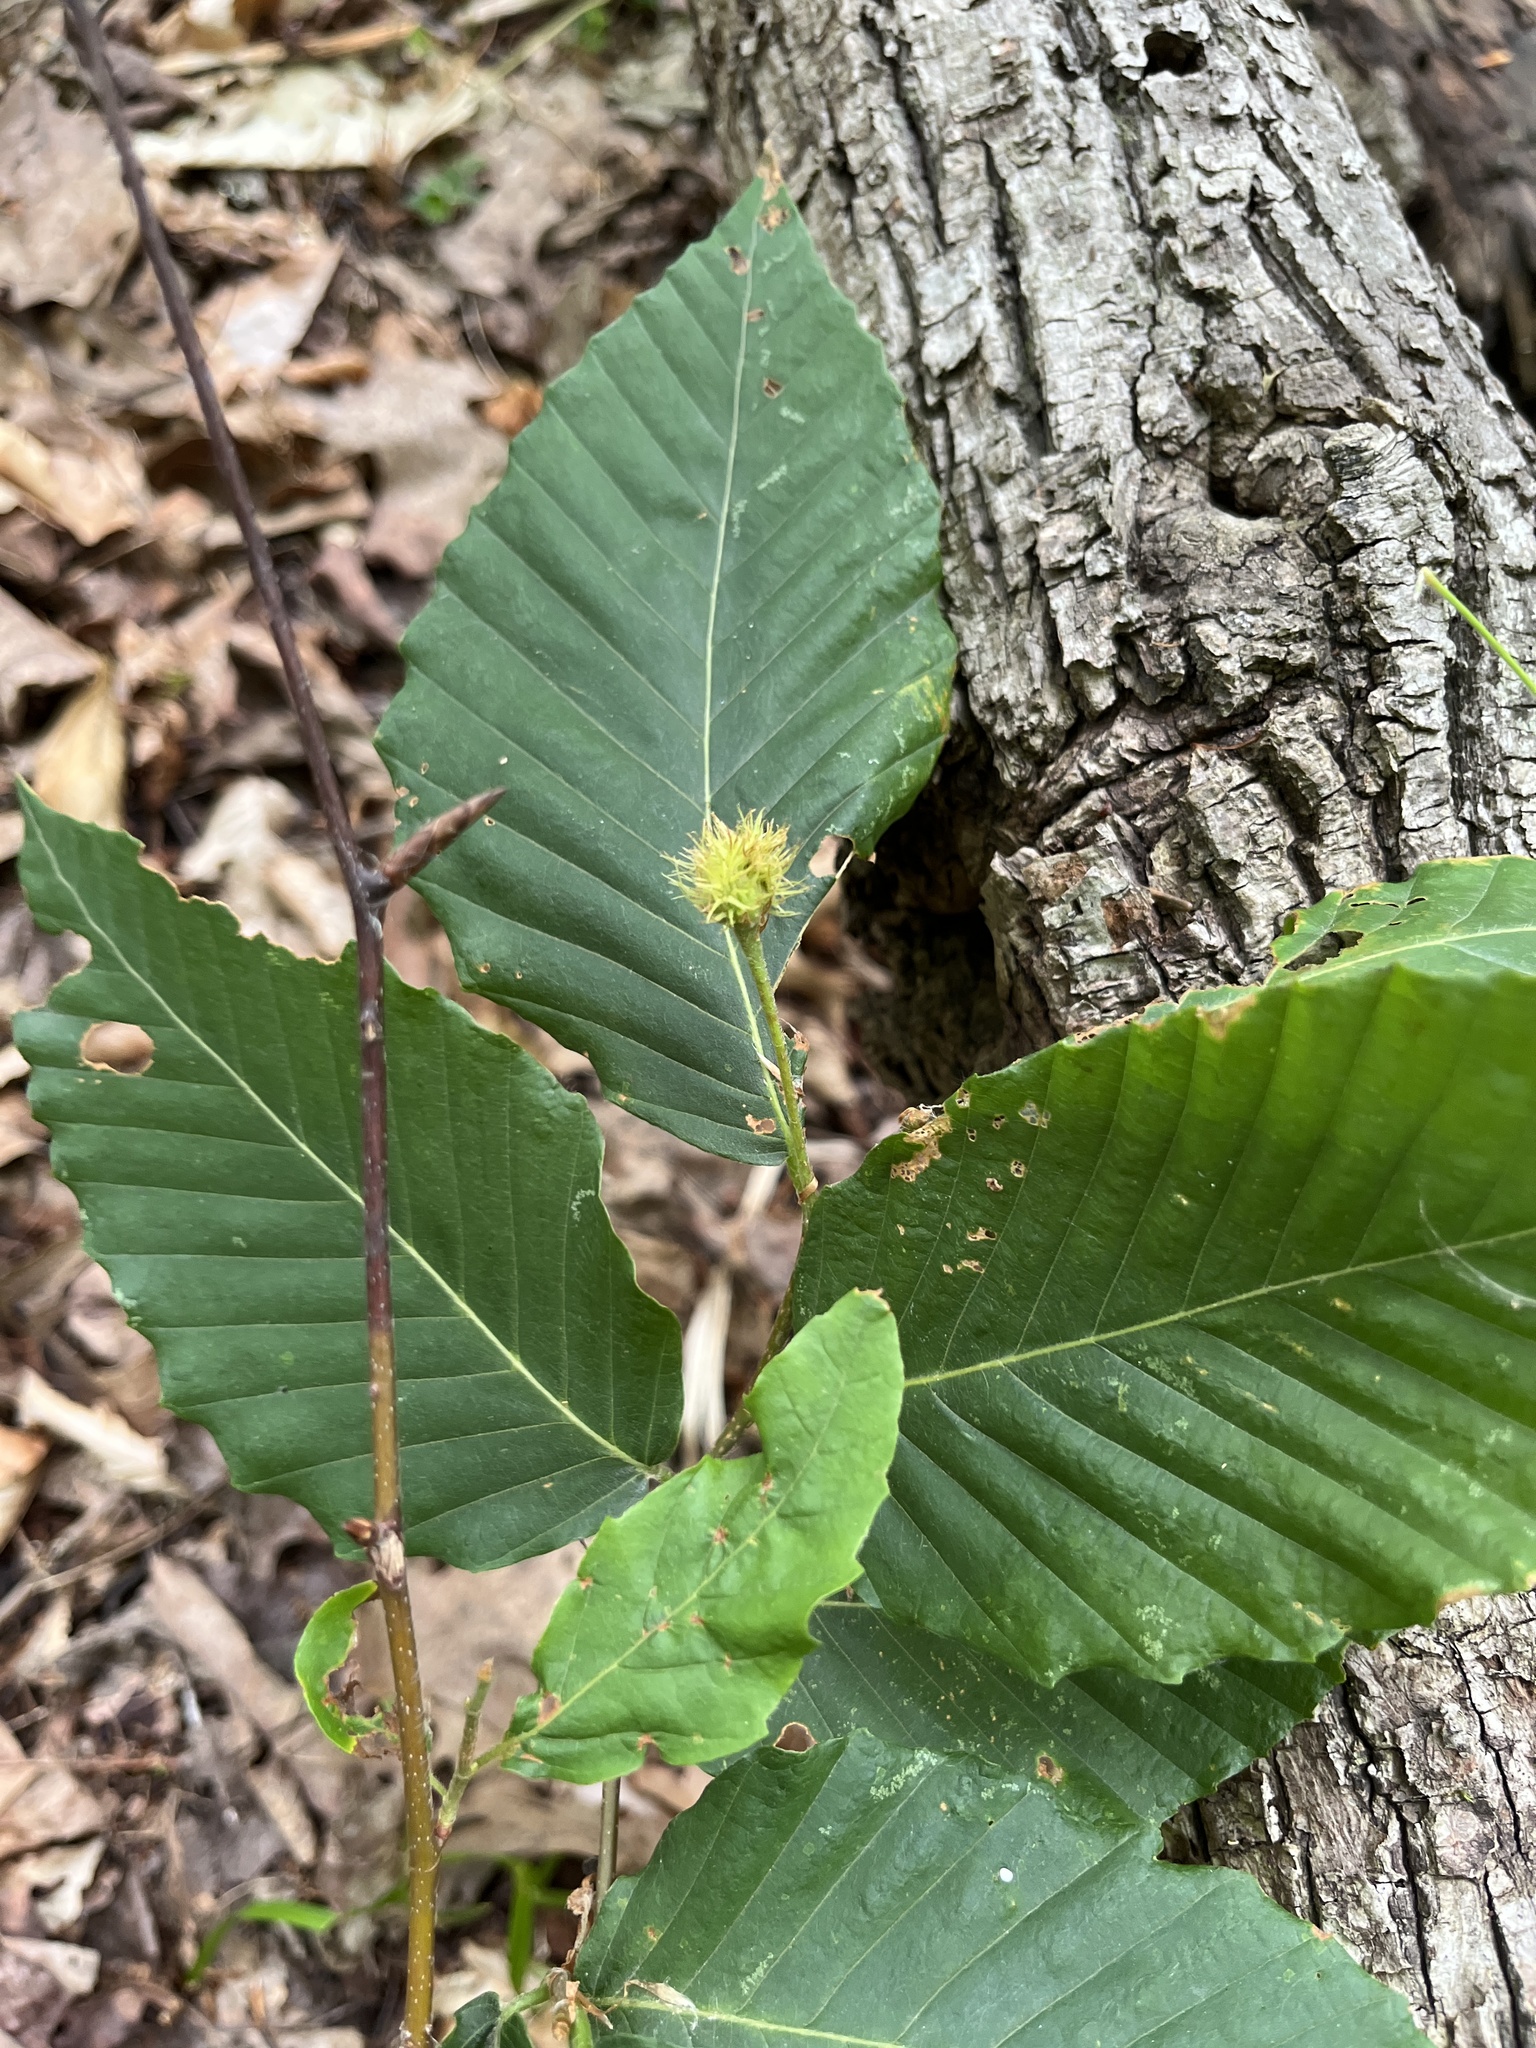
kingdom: Plantae
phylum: Tracheophyta
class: Magnoliopsida
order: Fagales
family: Fagaceae
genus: Fagus
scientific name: Fagus grandifolia
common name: American beech
